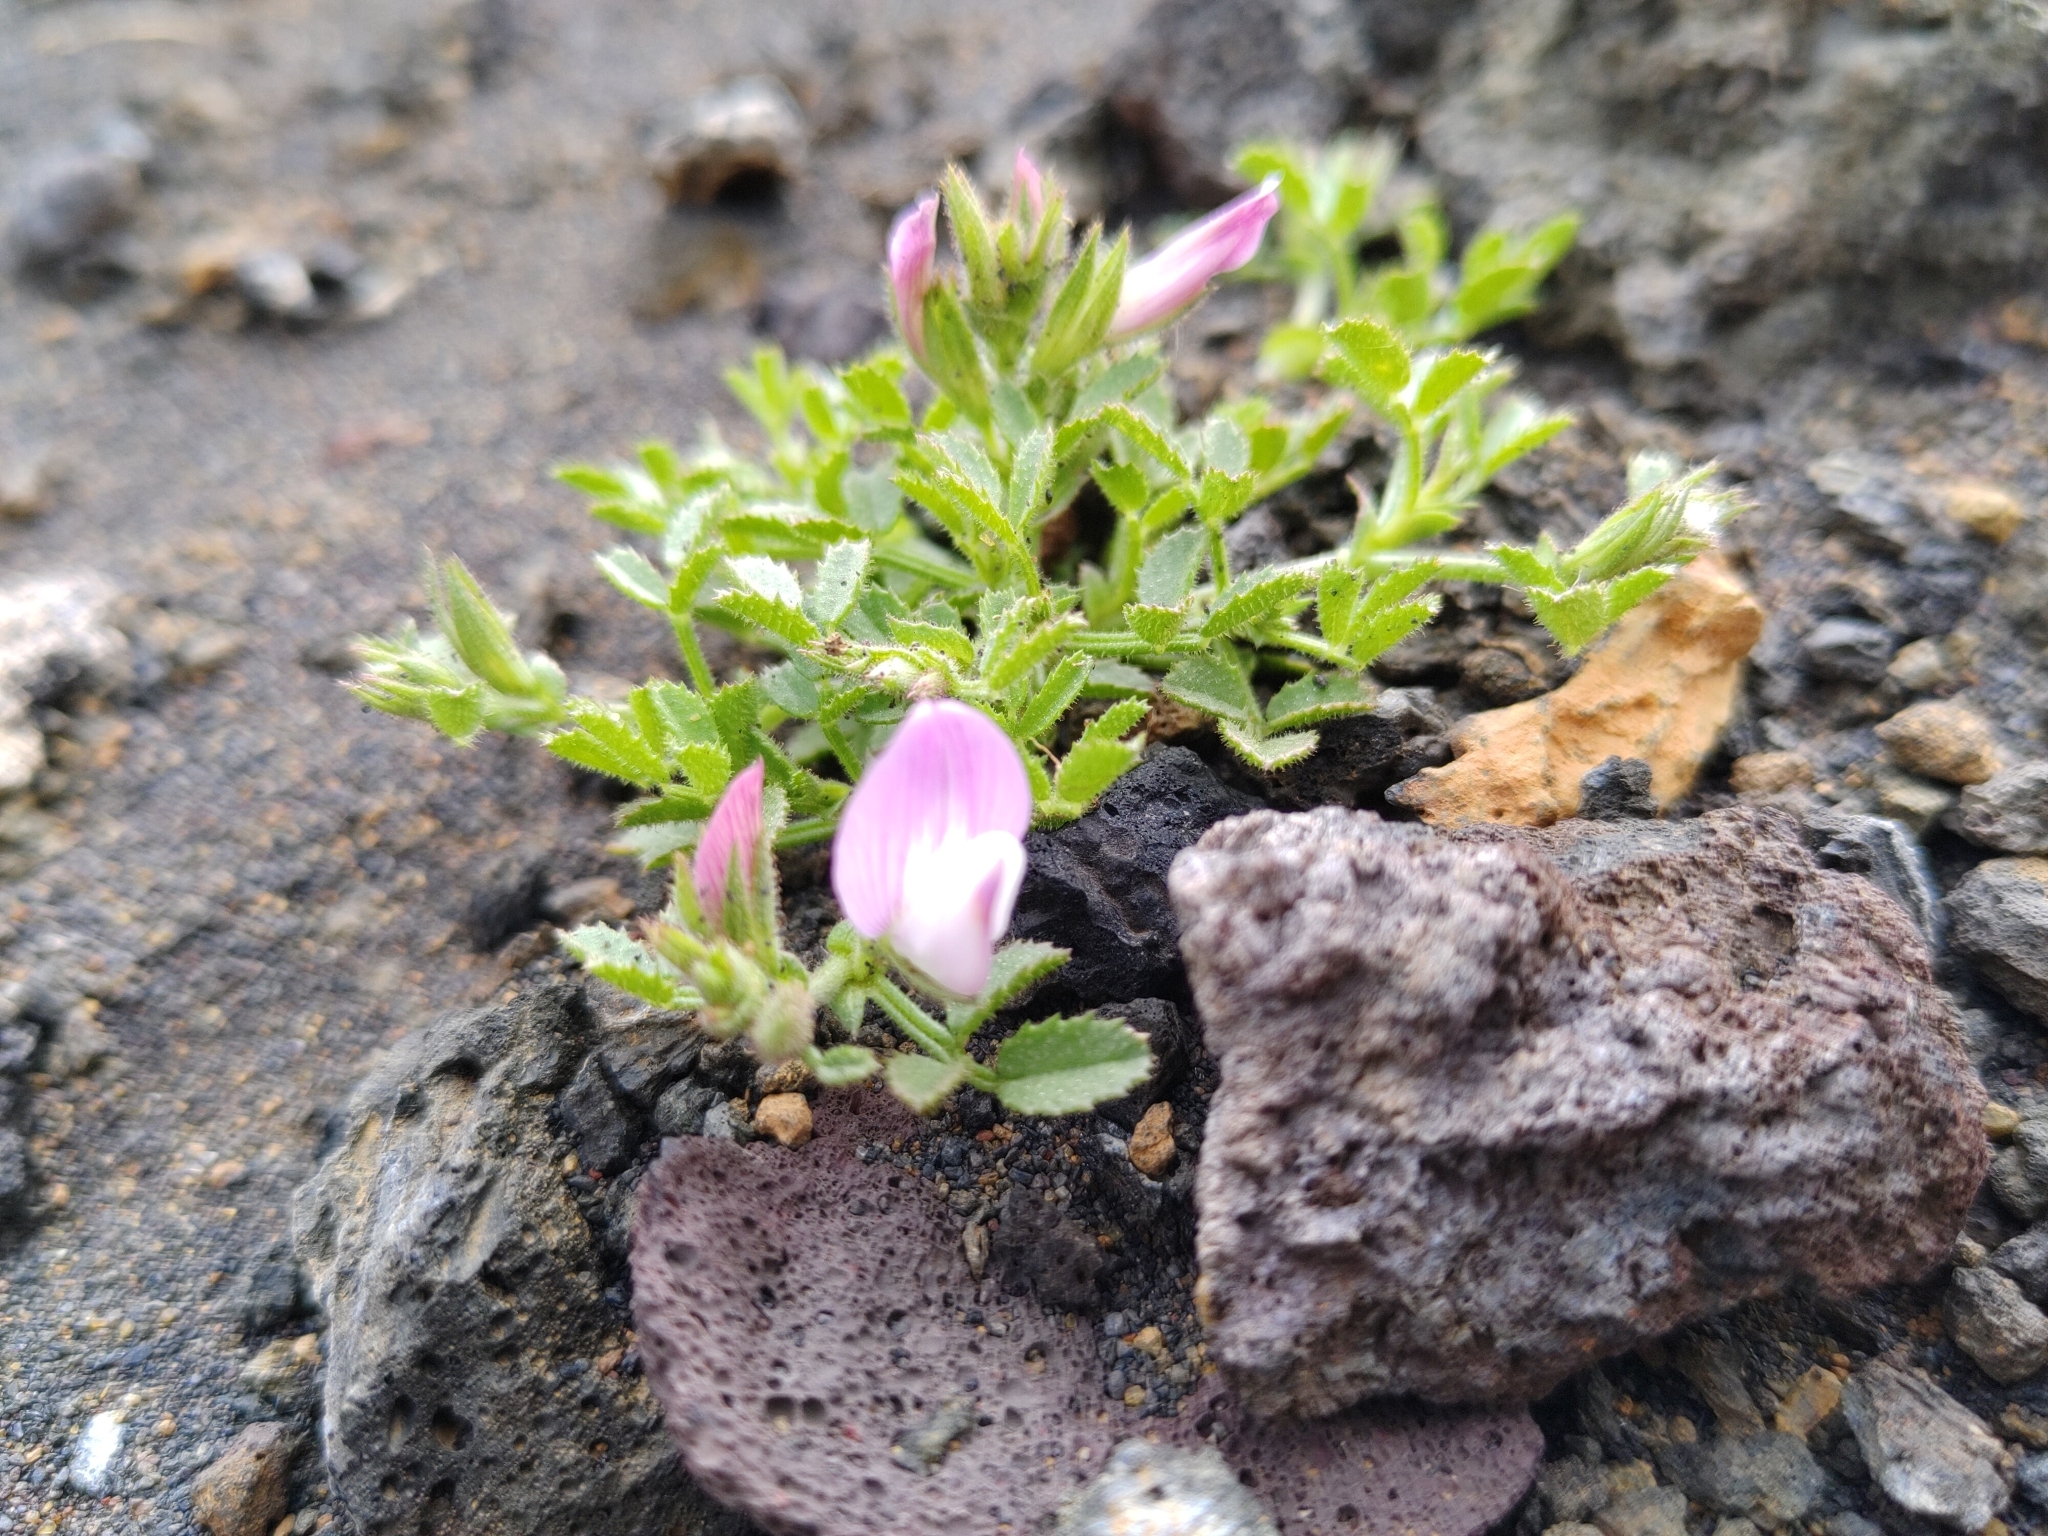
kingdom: Plantae
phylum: Tracheophyta
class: Magnoliopsida
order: Fabales
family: Fabaceae
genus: Ononis
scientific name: Ononis tournefortii
